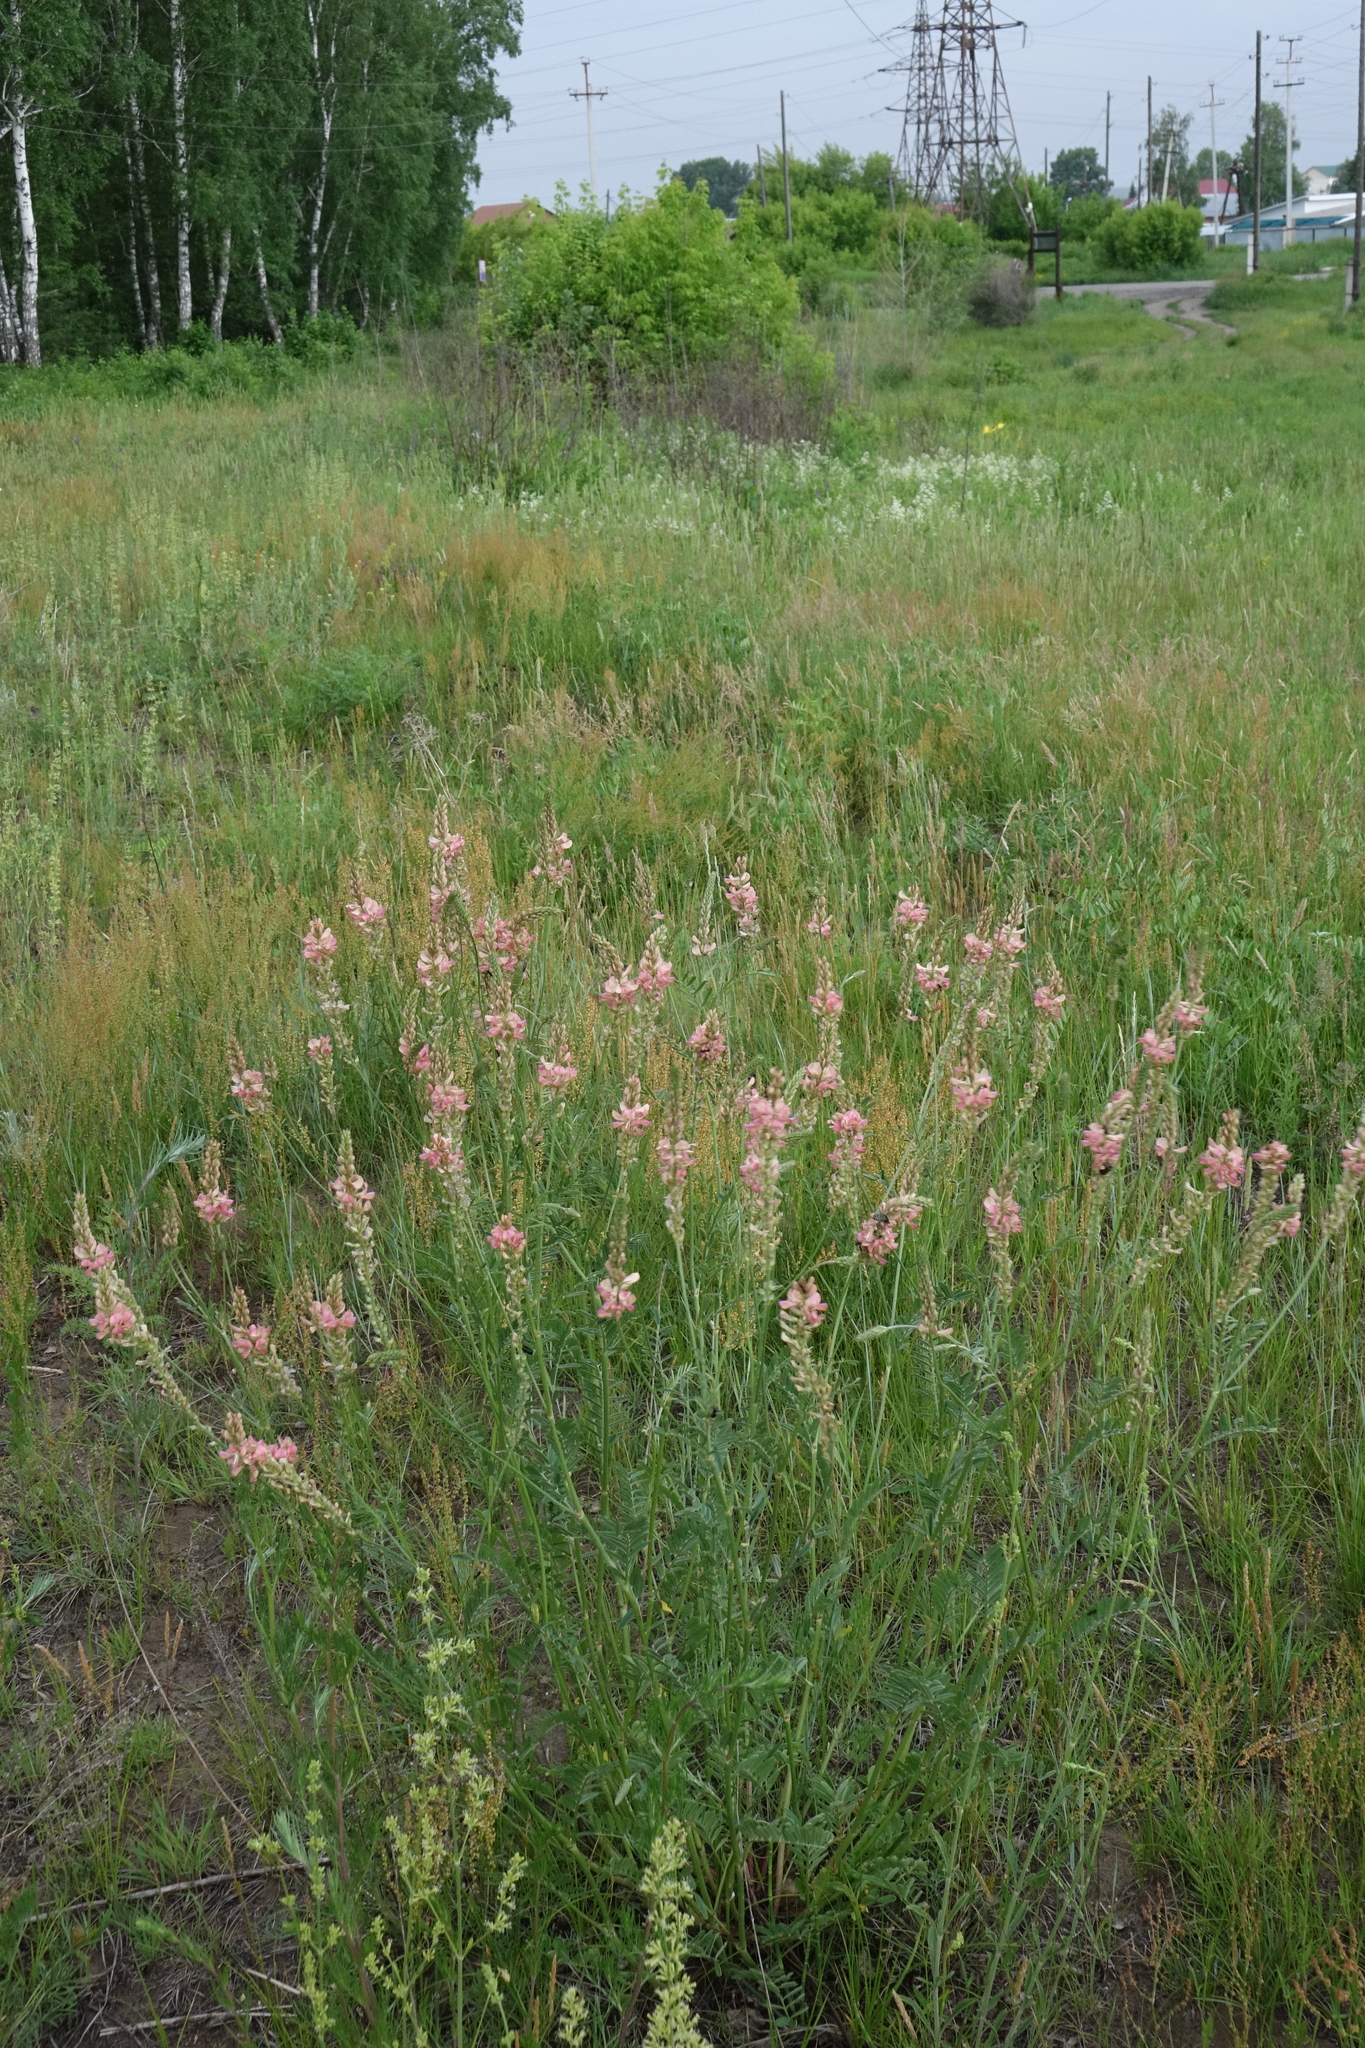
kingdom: Plantae
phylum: Tracheophyta
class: Magnoliopsida
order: Fabales
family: Fabaceae
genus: Onobrychis
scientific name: Onobrychis arenaria
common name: Sand esparcet
